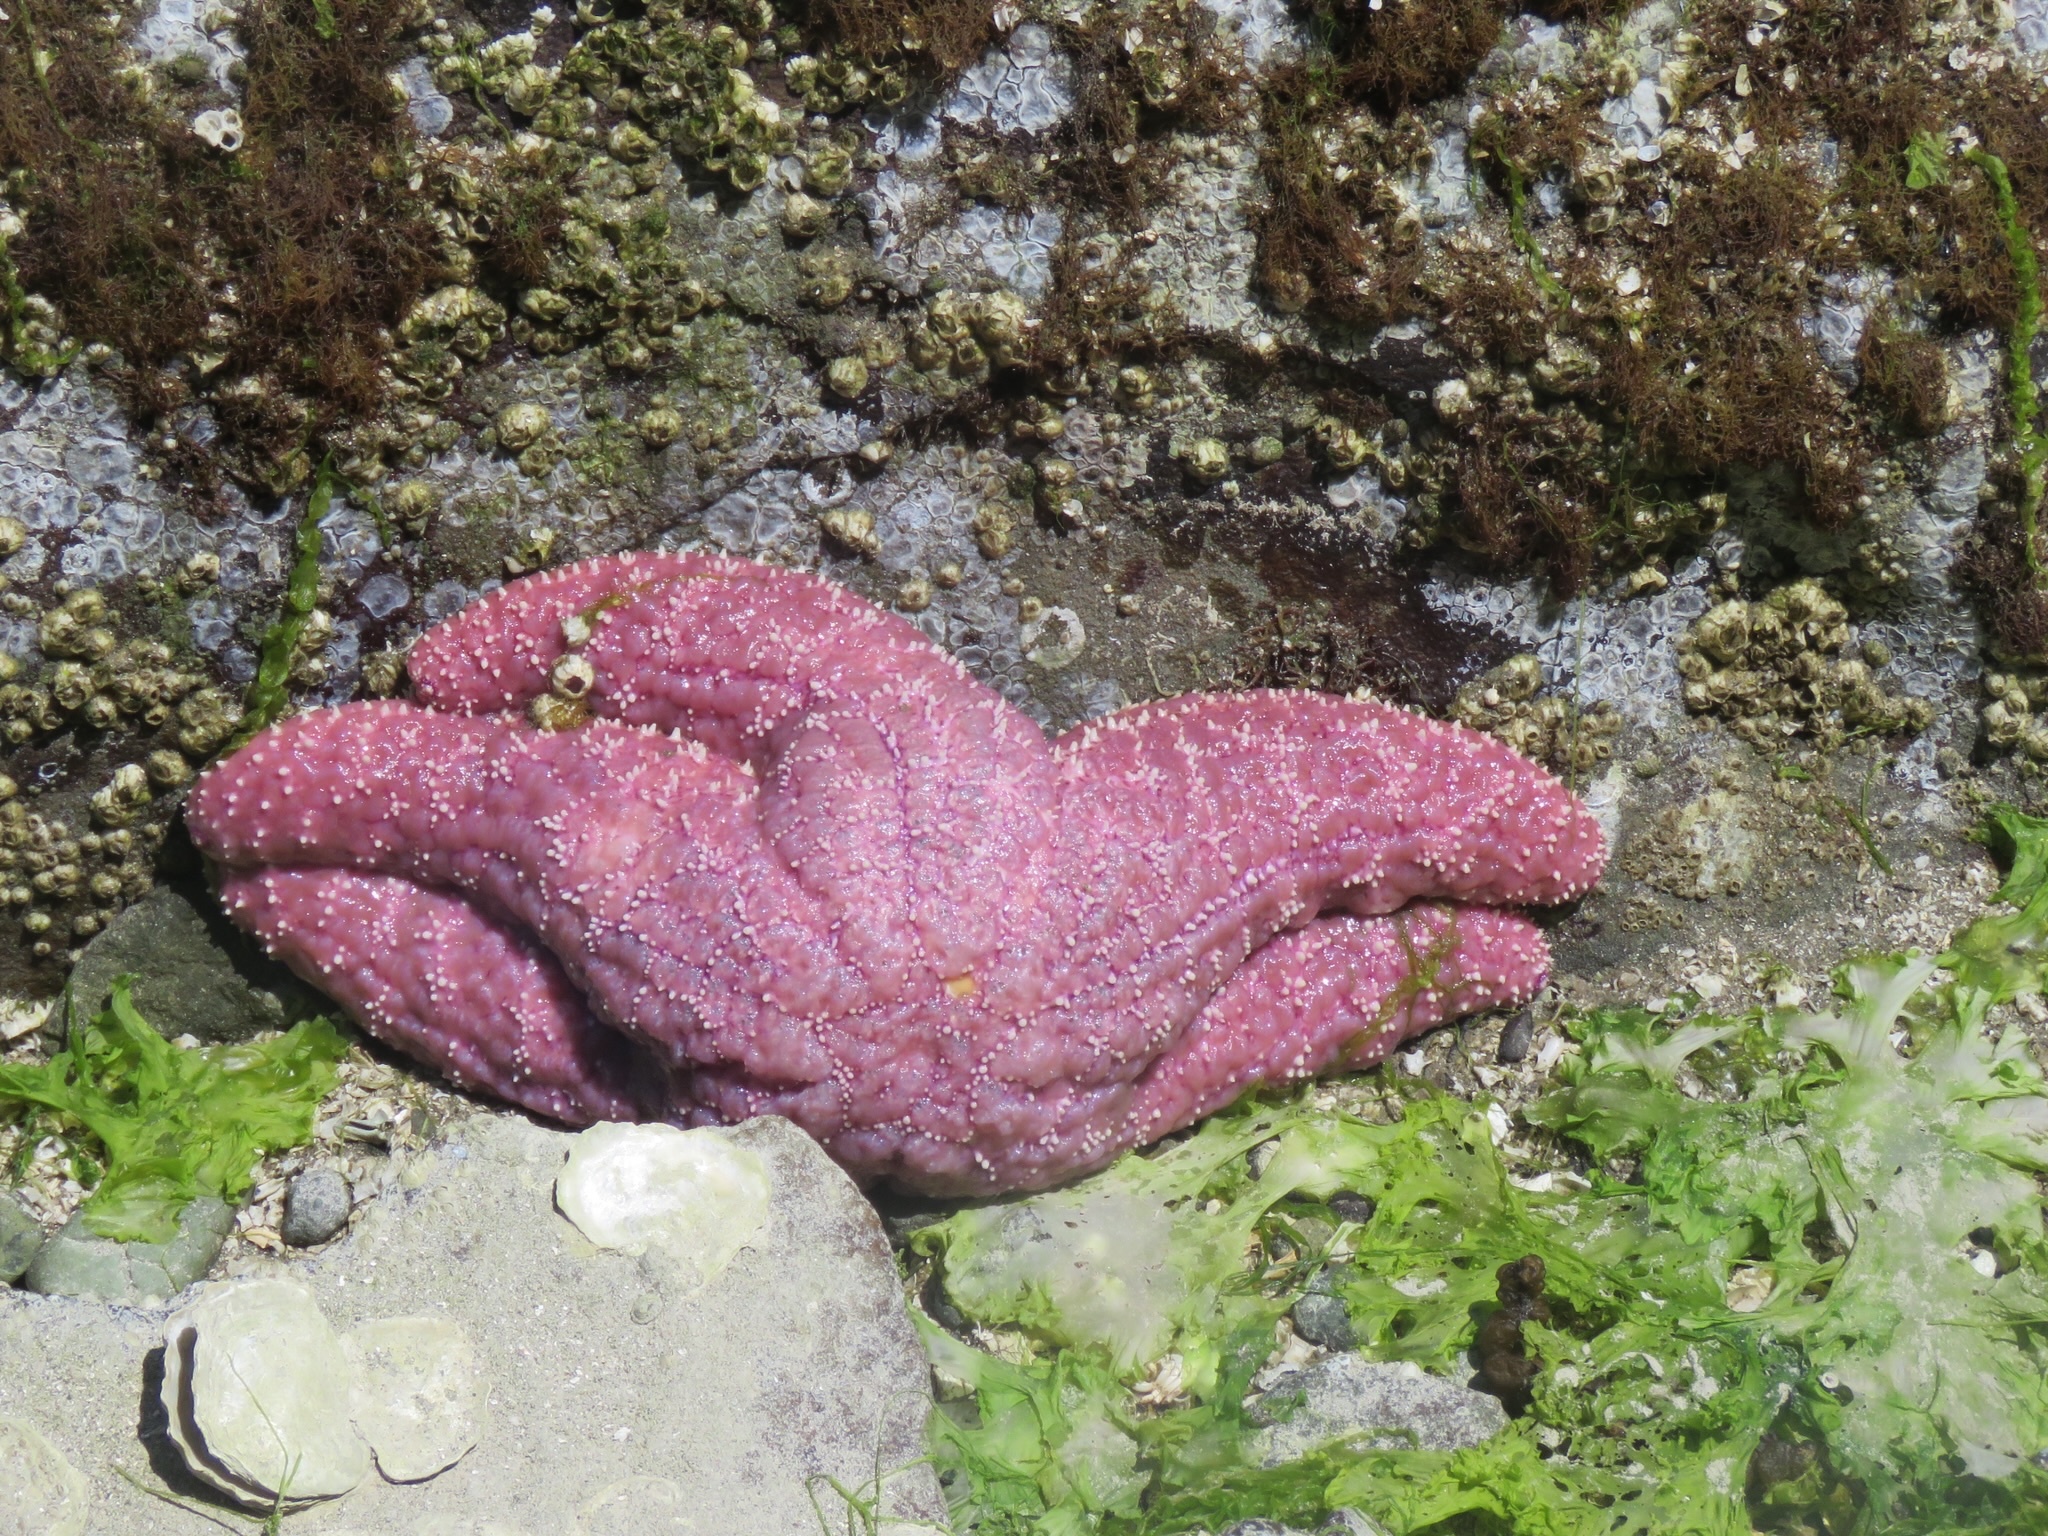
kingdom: Animalia
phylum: Echinodermata
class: Asteroidea
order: Forcipulatida
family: Asteriidae
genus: Pisaster
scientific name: Pisaster ochraceus
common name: Ochre stars
